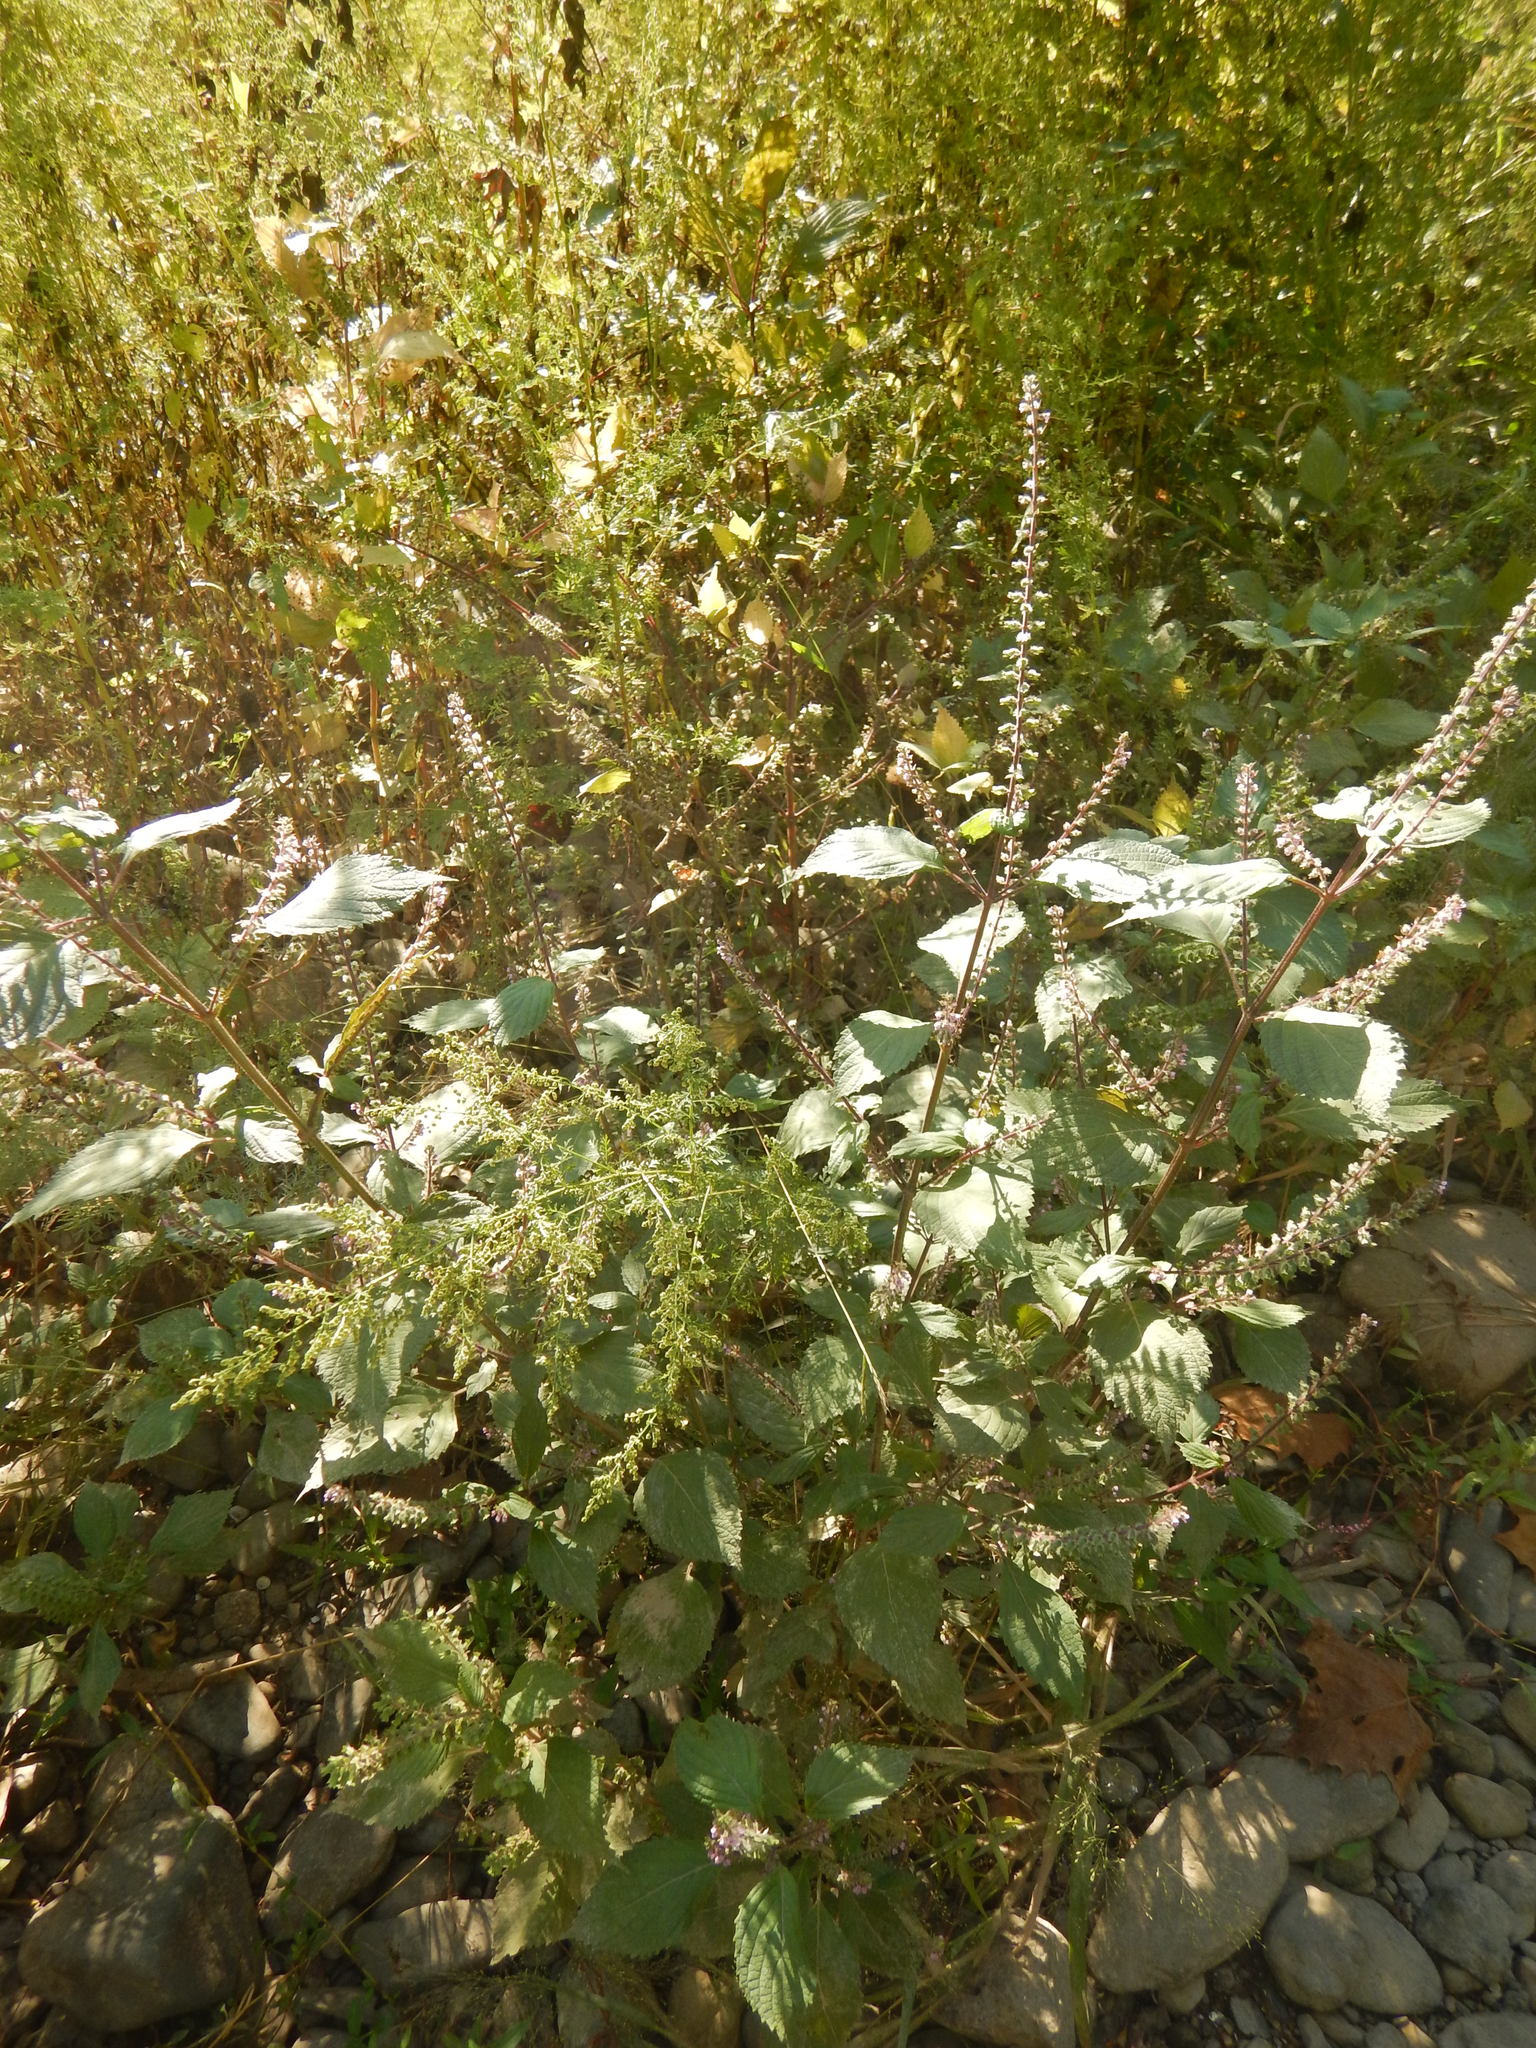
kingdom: Plantae
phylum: Tracheophyta
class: Magnoliopsida
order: Lamiales
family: Lamiaceae
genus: Perilla
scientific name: Perilla frutescens
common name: Perilla
